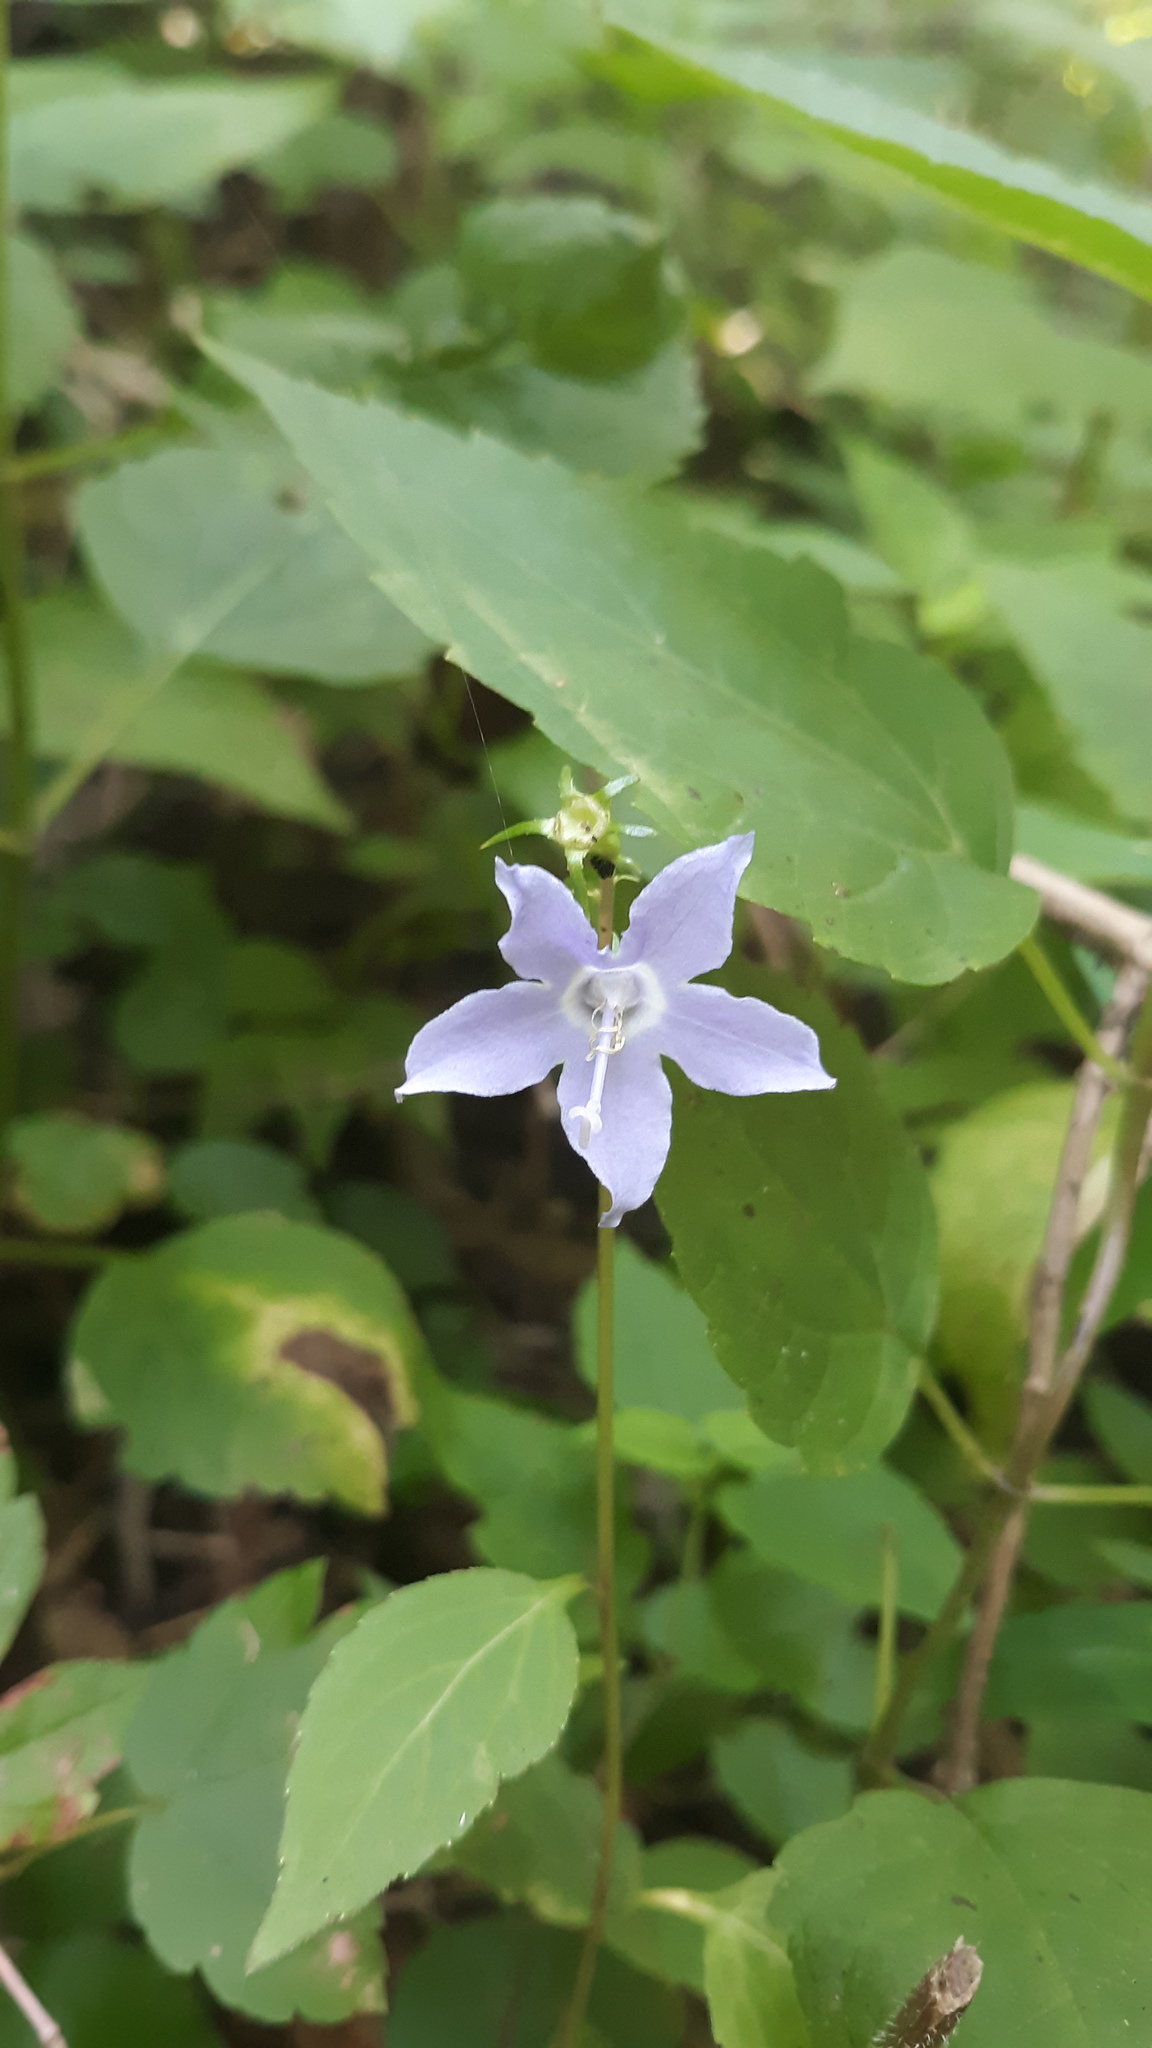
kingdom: Plantae
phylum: Tracheophyta
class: Magnoliopsida
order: Asterales
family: Campanulaceae
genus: Campanulastrum
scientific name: Campanulastrum americanum
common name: American bellflower
